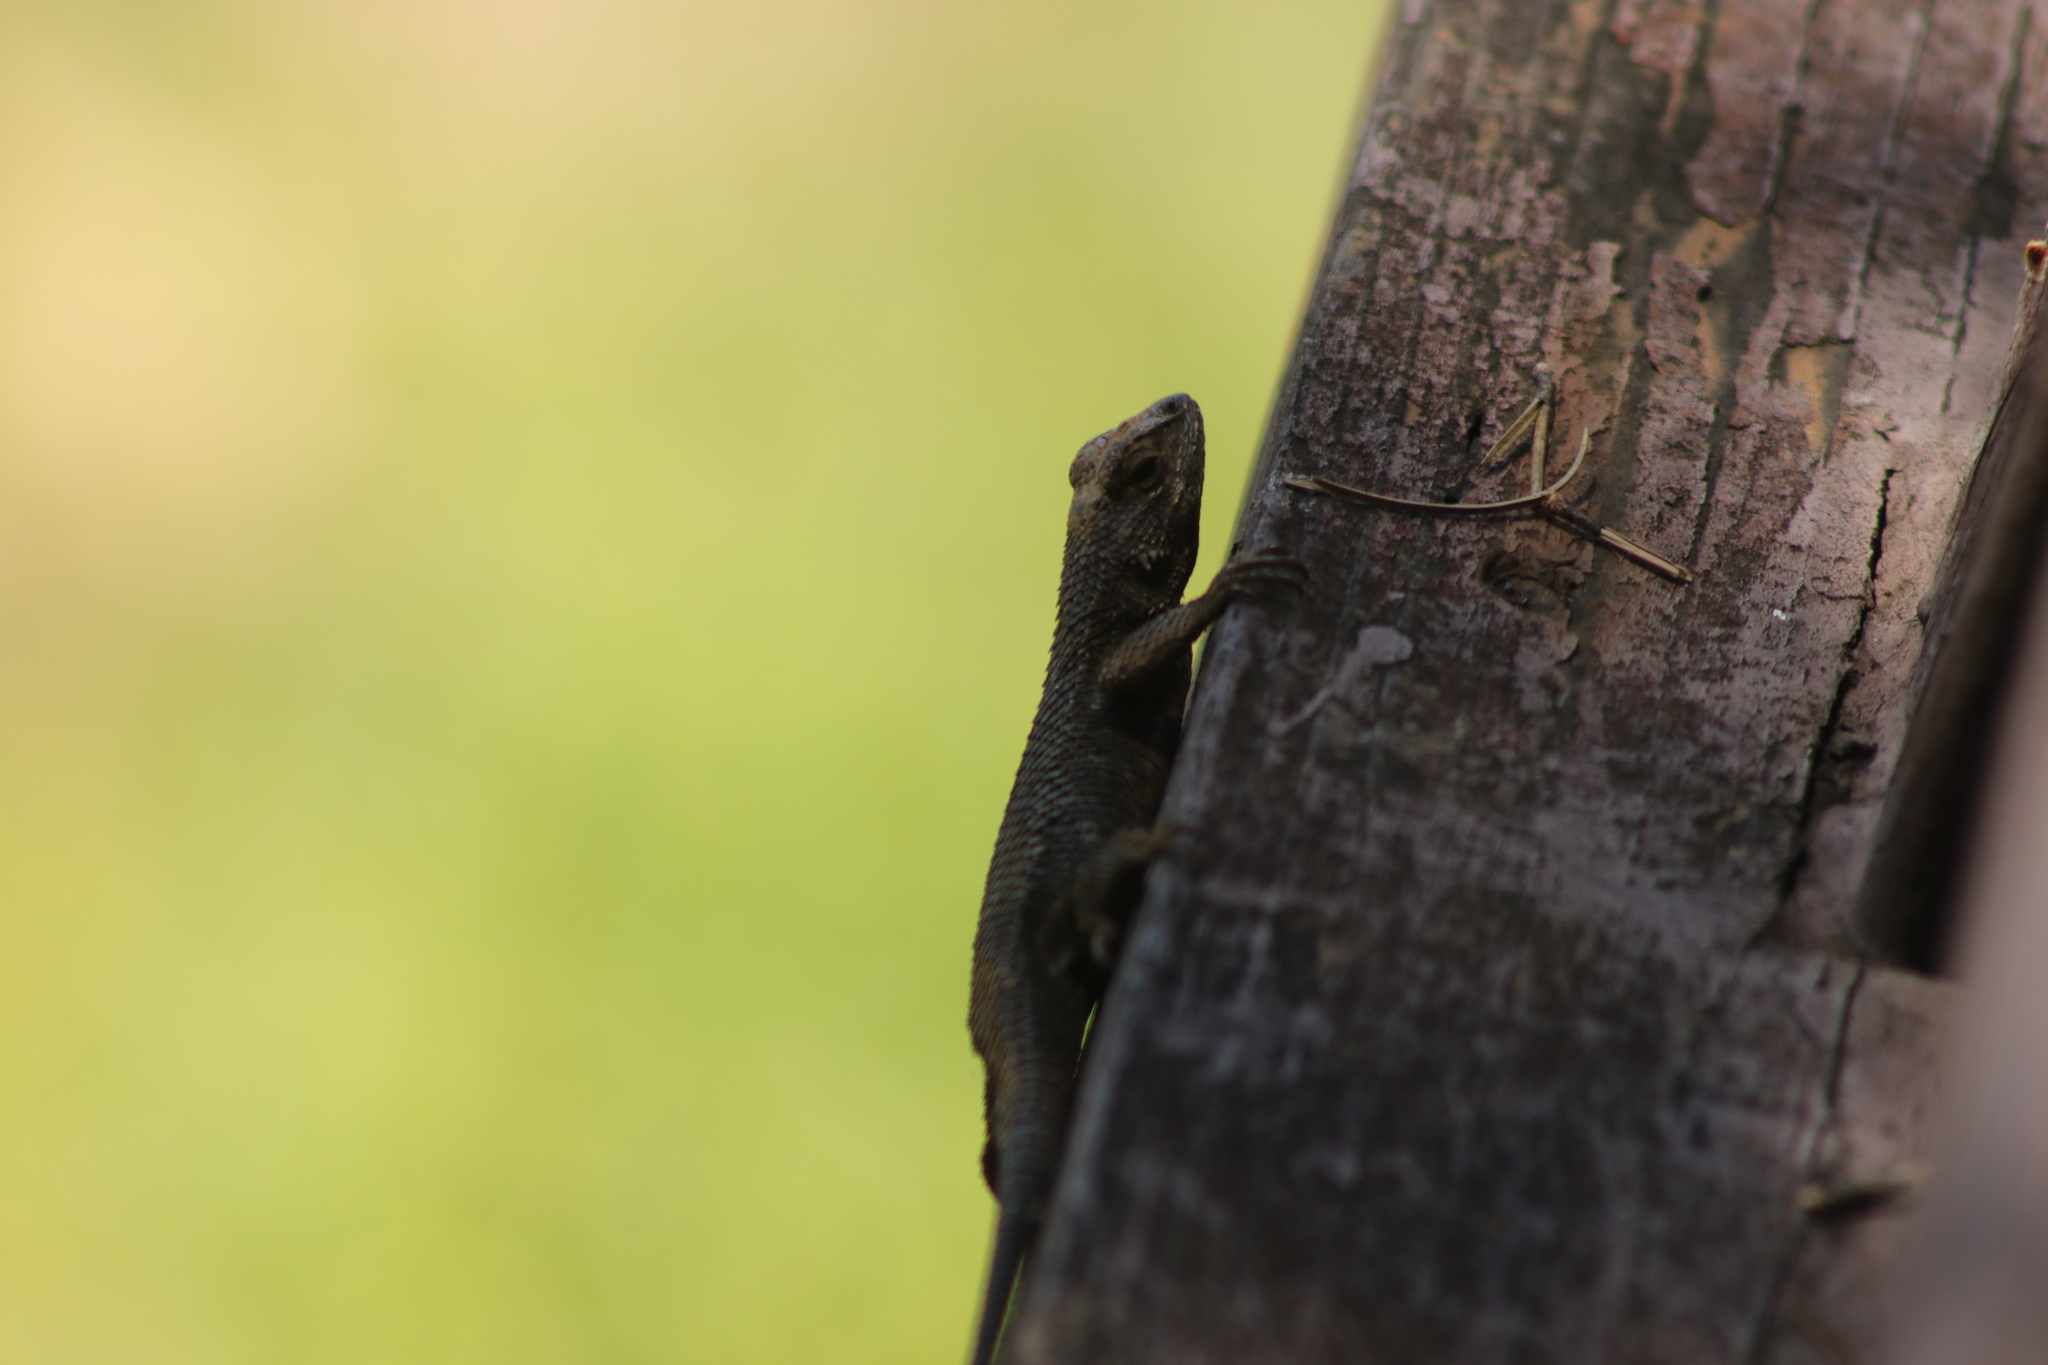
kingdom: Animalia
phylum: Chordata
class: Squamata
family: Phrynosomatidae
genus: Sceloporus
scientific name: Sceloporus occidentalis
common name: Western fence lizard
